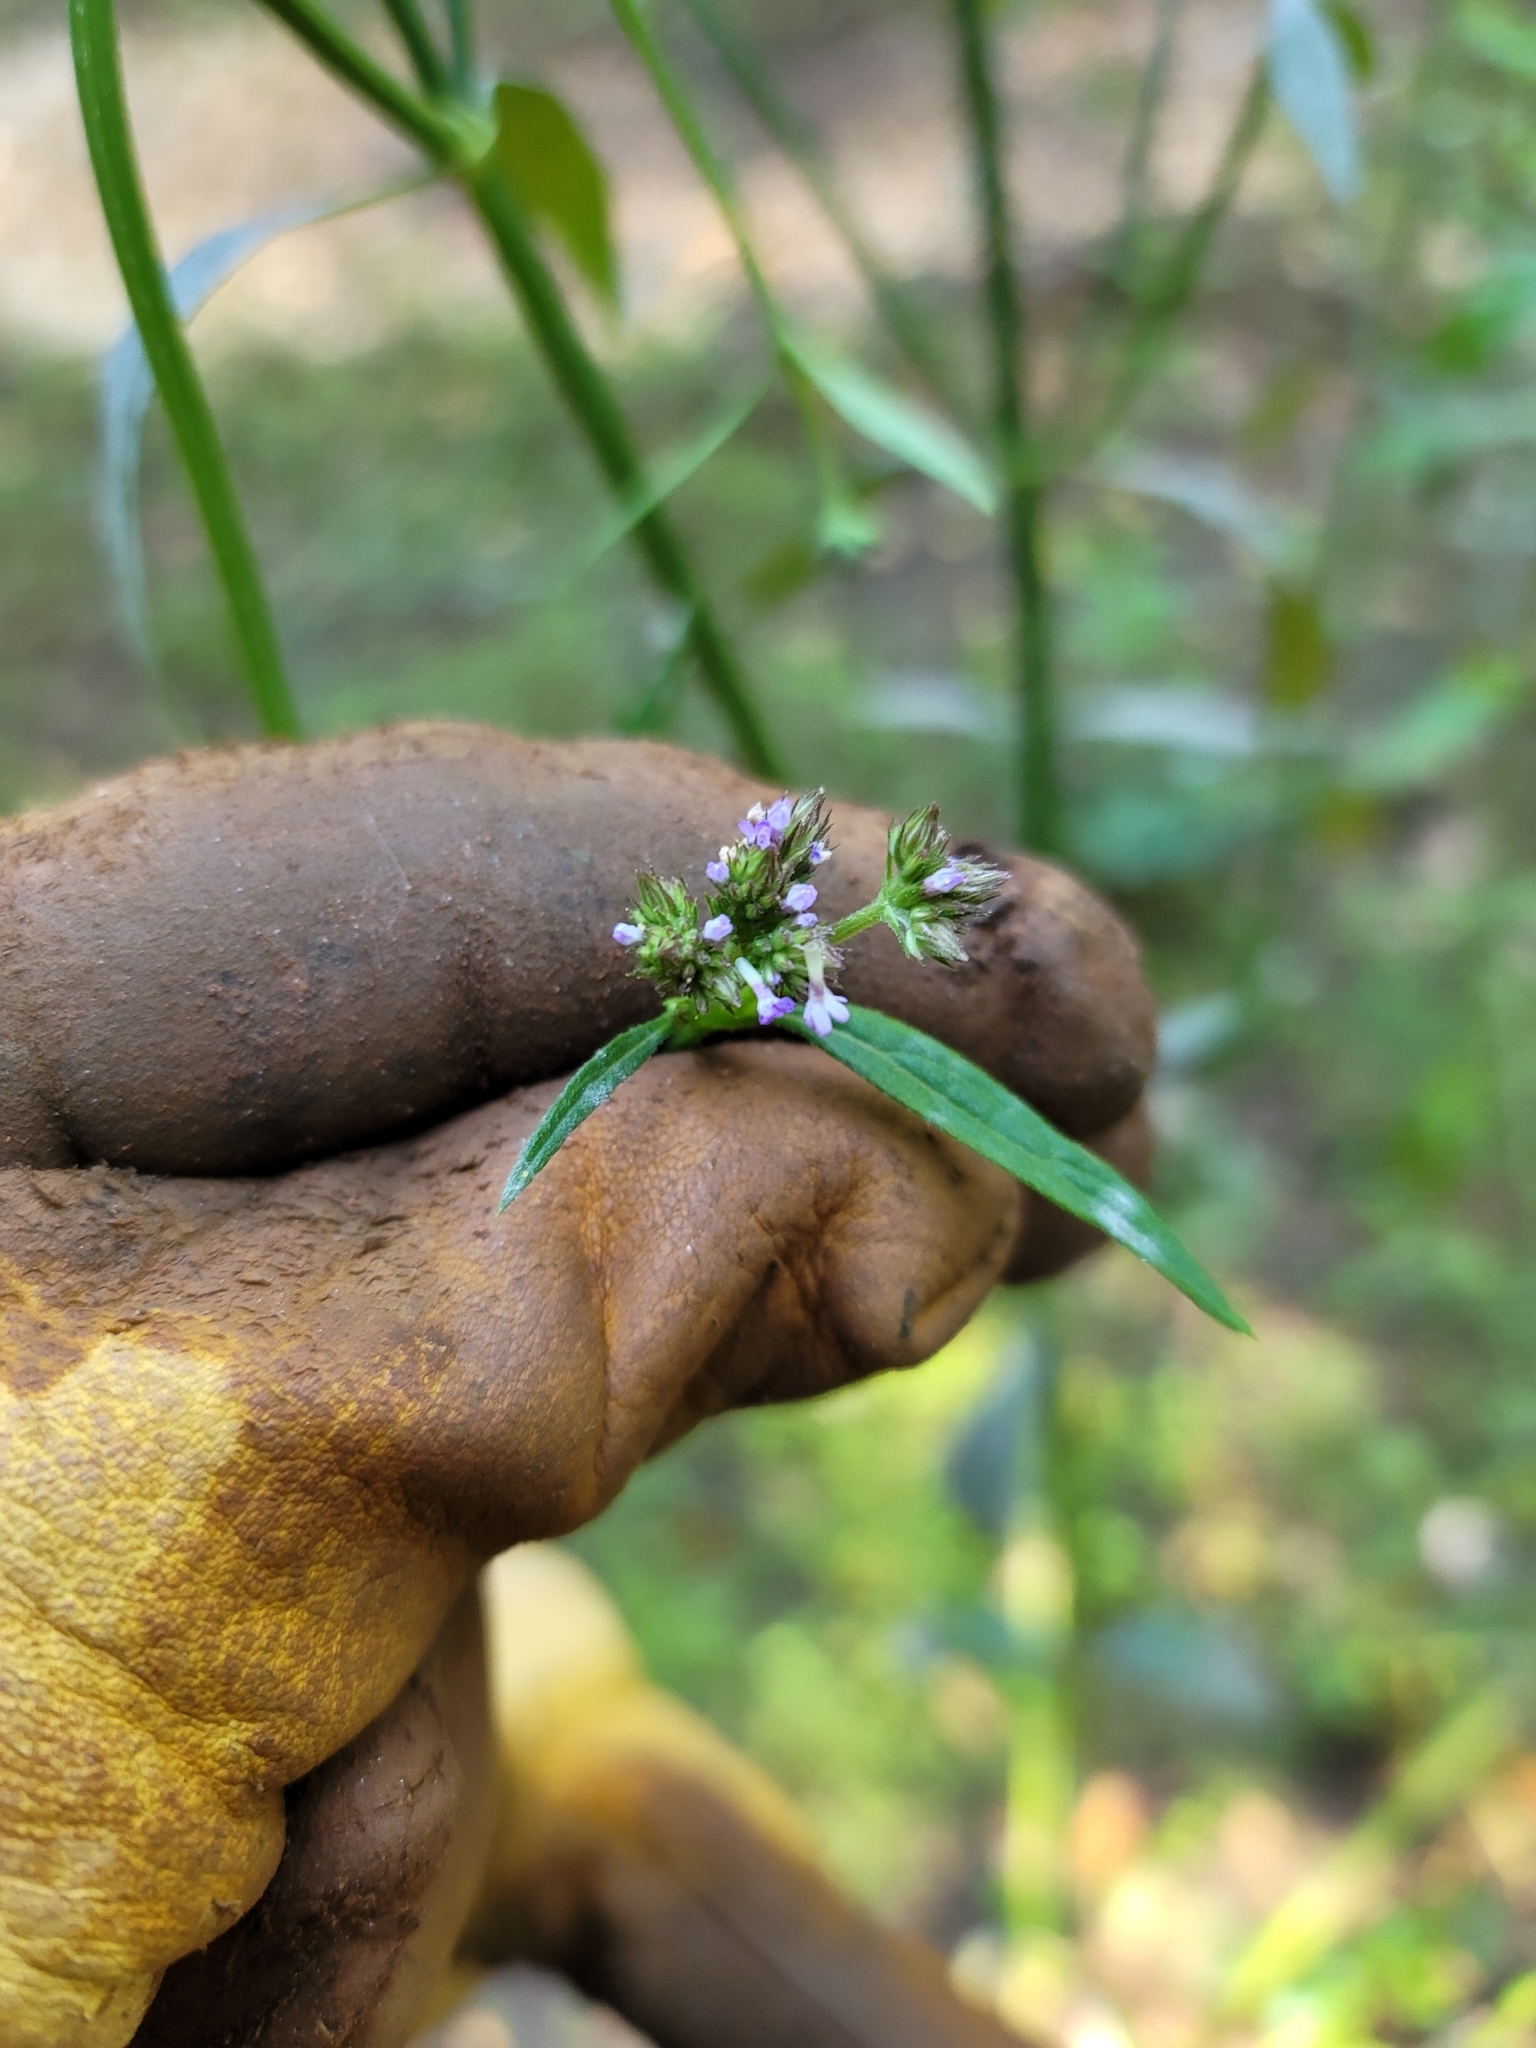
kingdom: Plantae
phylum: Tracheophyta
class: Magnoliopsida
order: Lamiales
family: Verbenaceae
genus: Verbena
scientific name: Verbena brasiliensis
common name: Brazilian vervain
